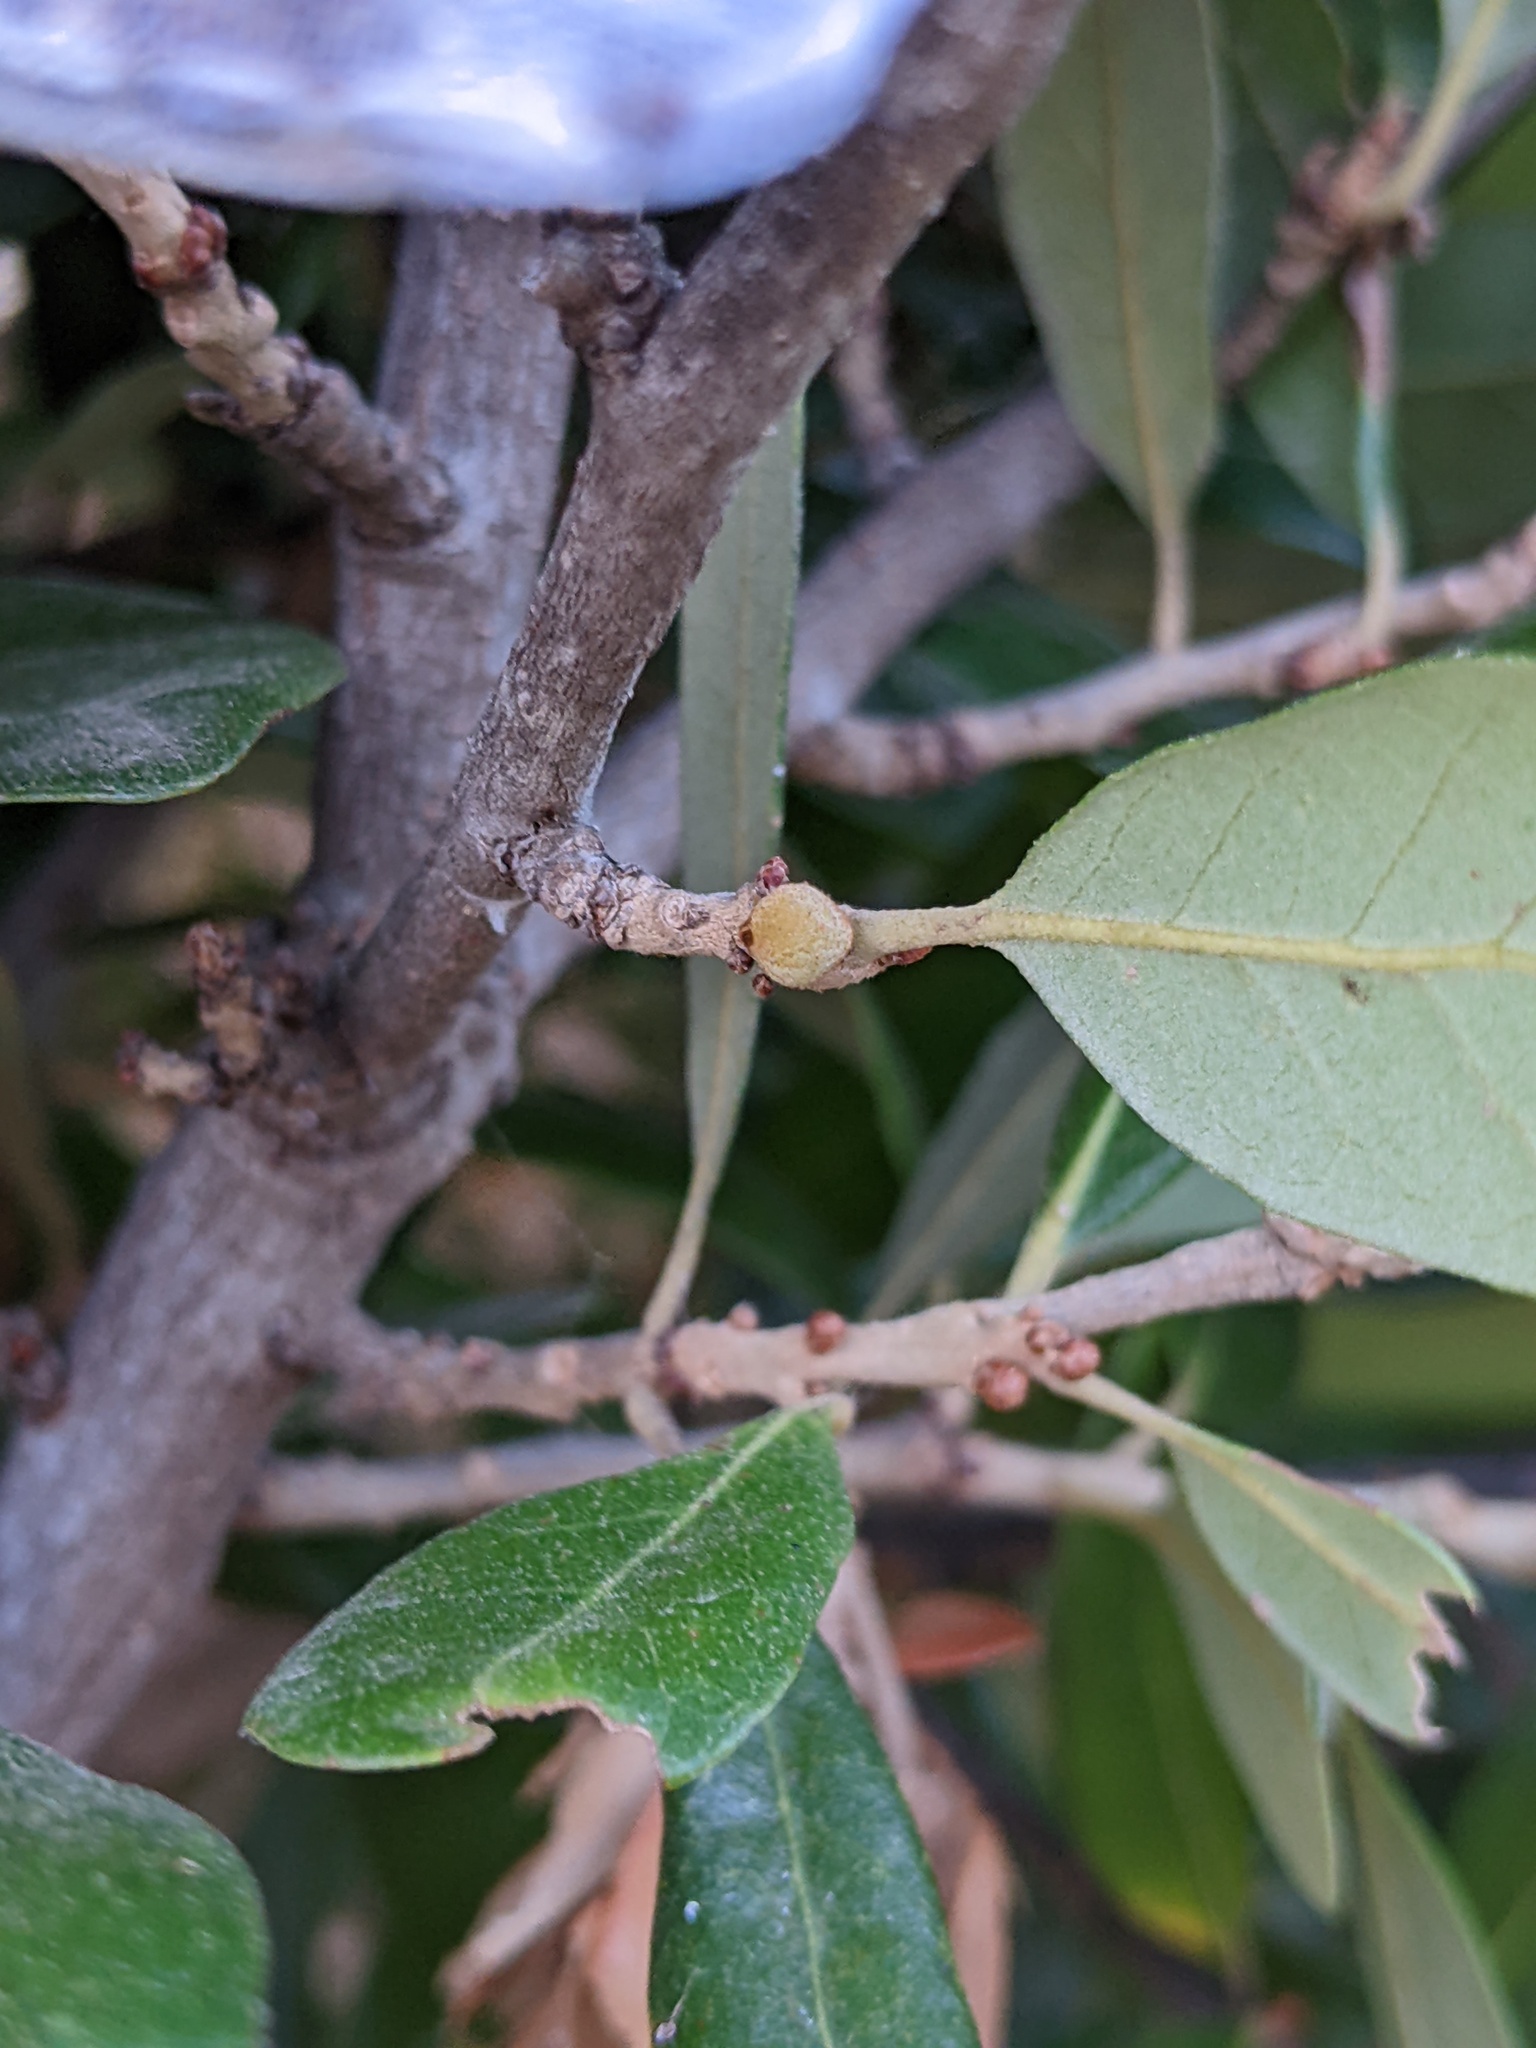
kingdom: Animalia
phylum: Arthropoda
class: Insecta
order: Hymenoptera
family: Cynipidae
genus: Disholcaspis
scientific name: Disholcaspis
